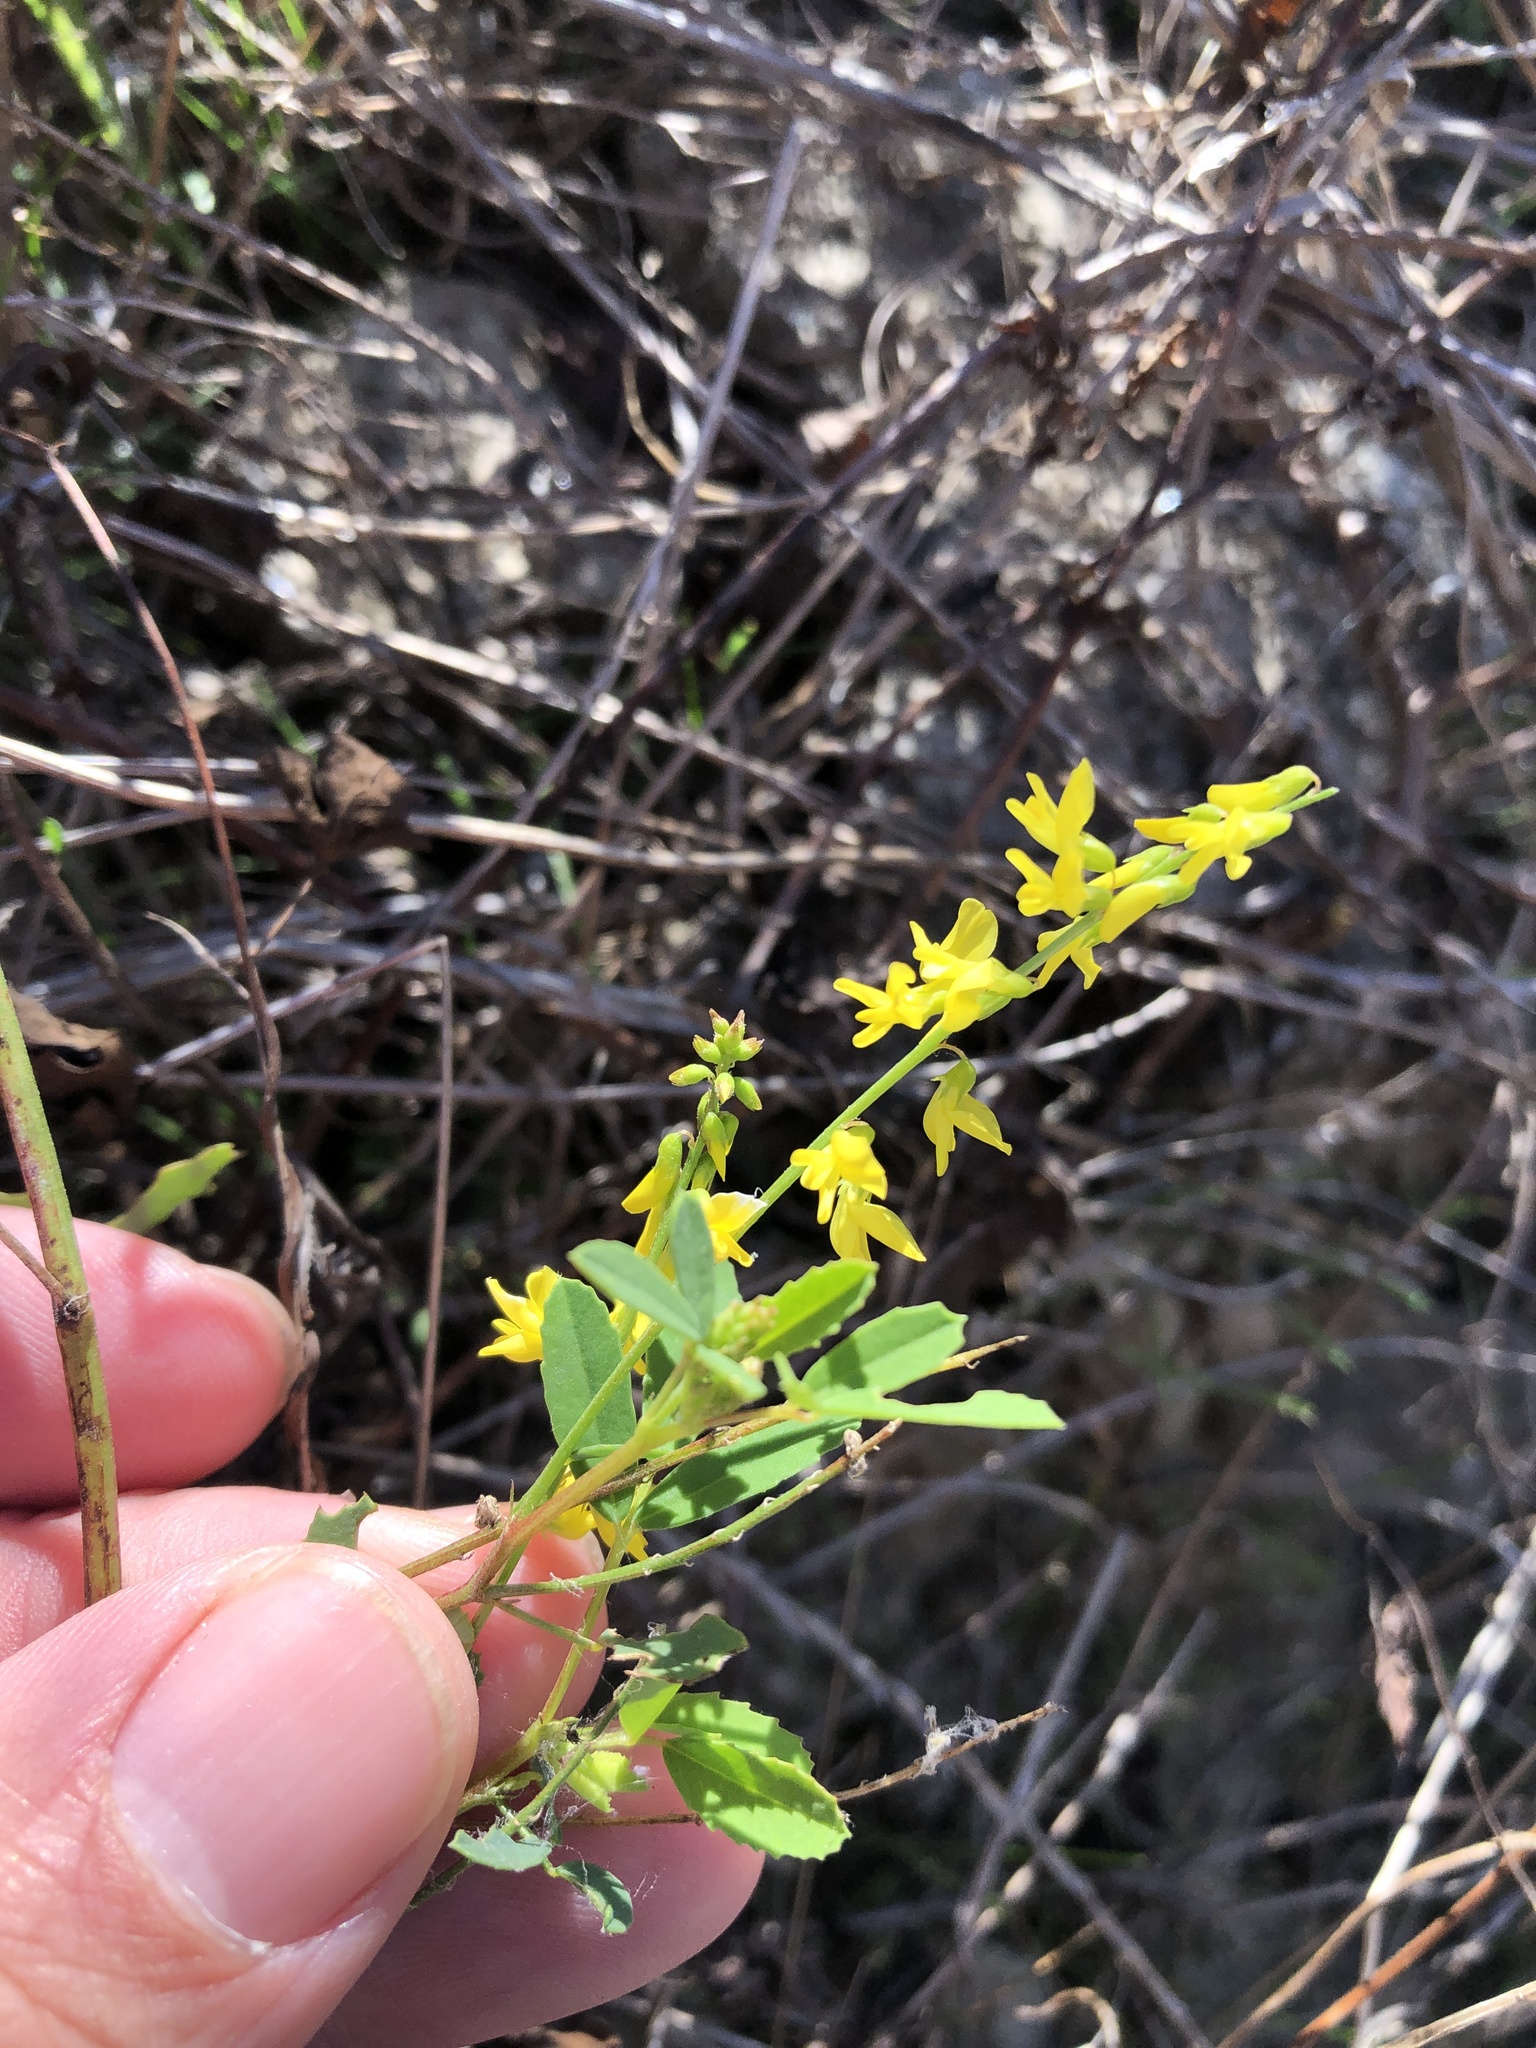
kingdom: Plantae
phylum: Tracheophyta
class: Magnoliopsida
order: Fabales
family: Fabaceae
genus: Melilotus
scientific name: Melilotus officinalis
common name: Sweetclover
